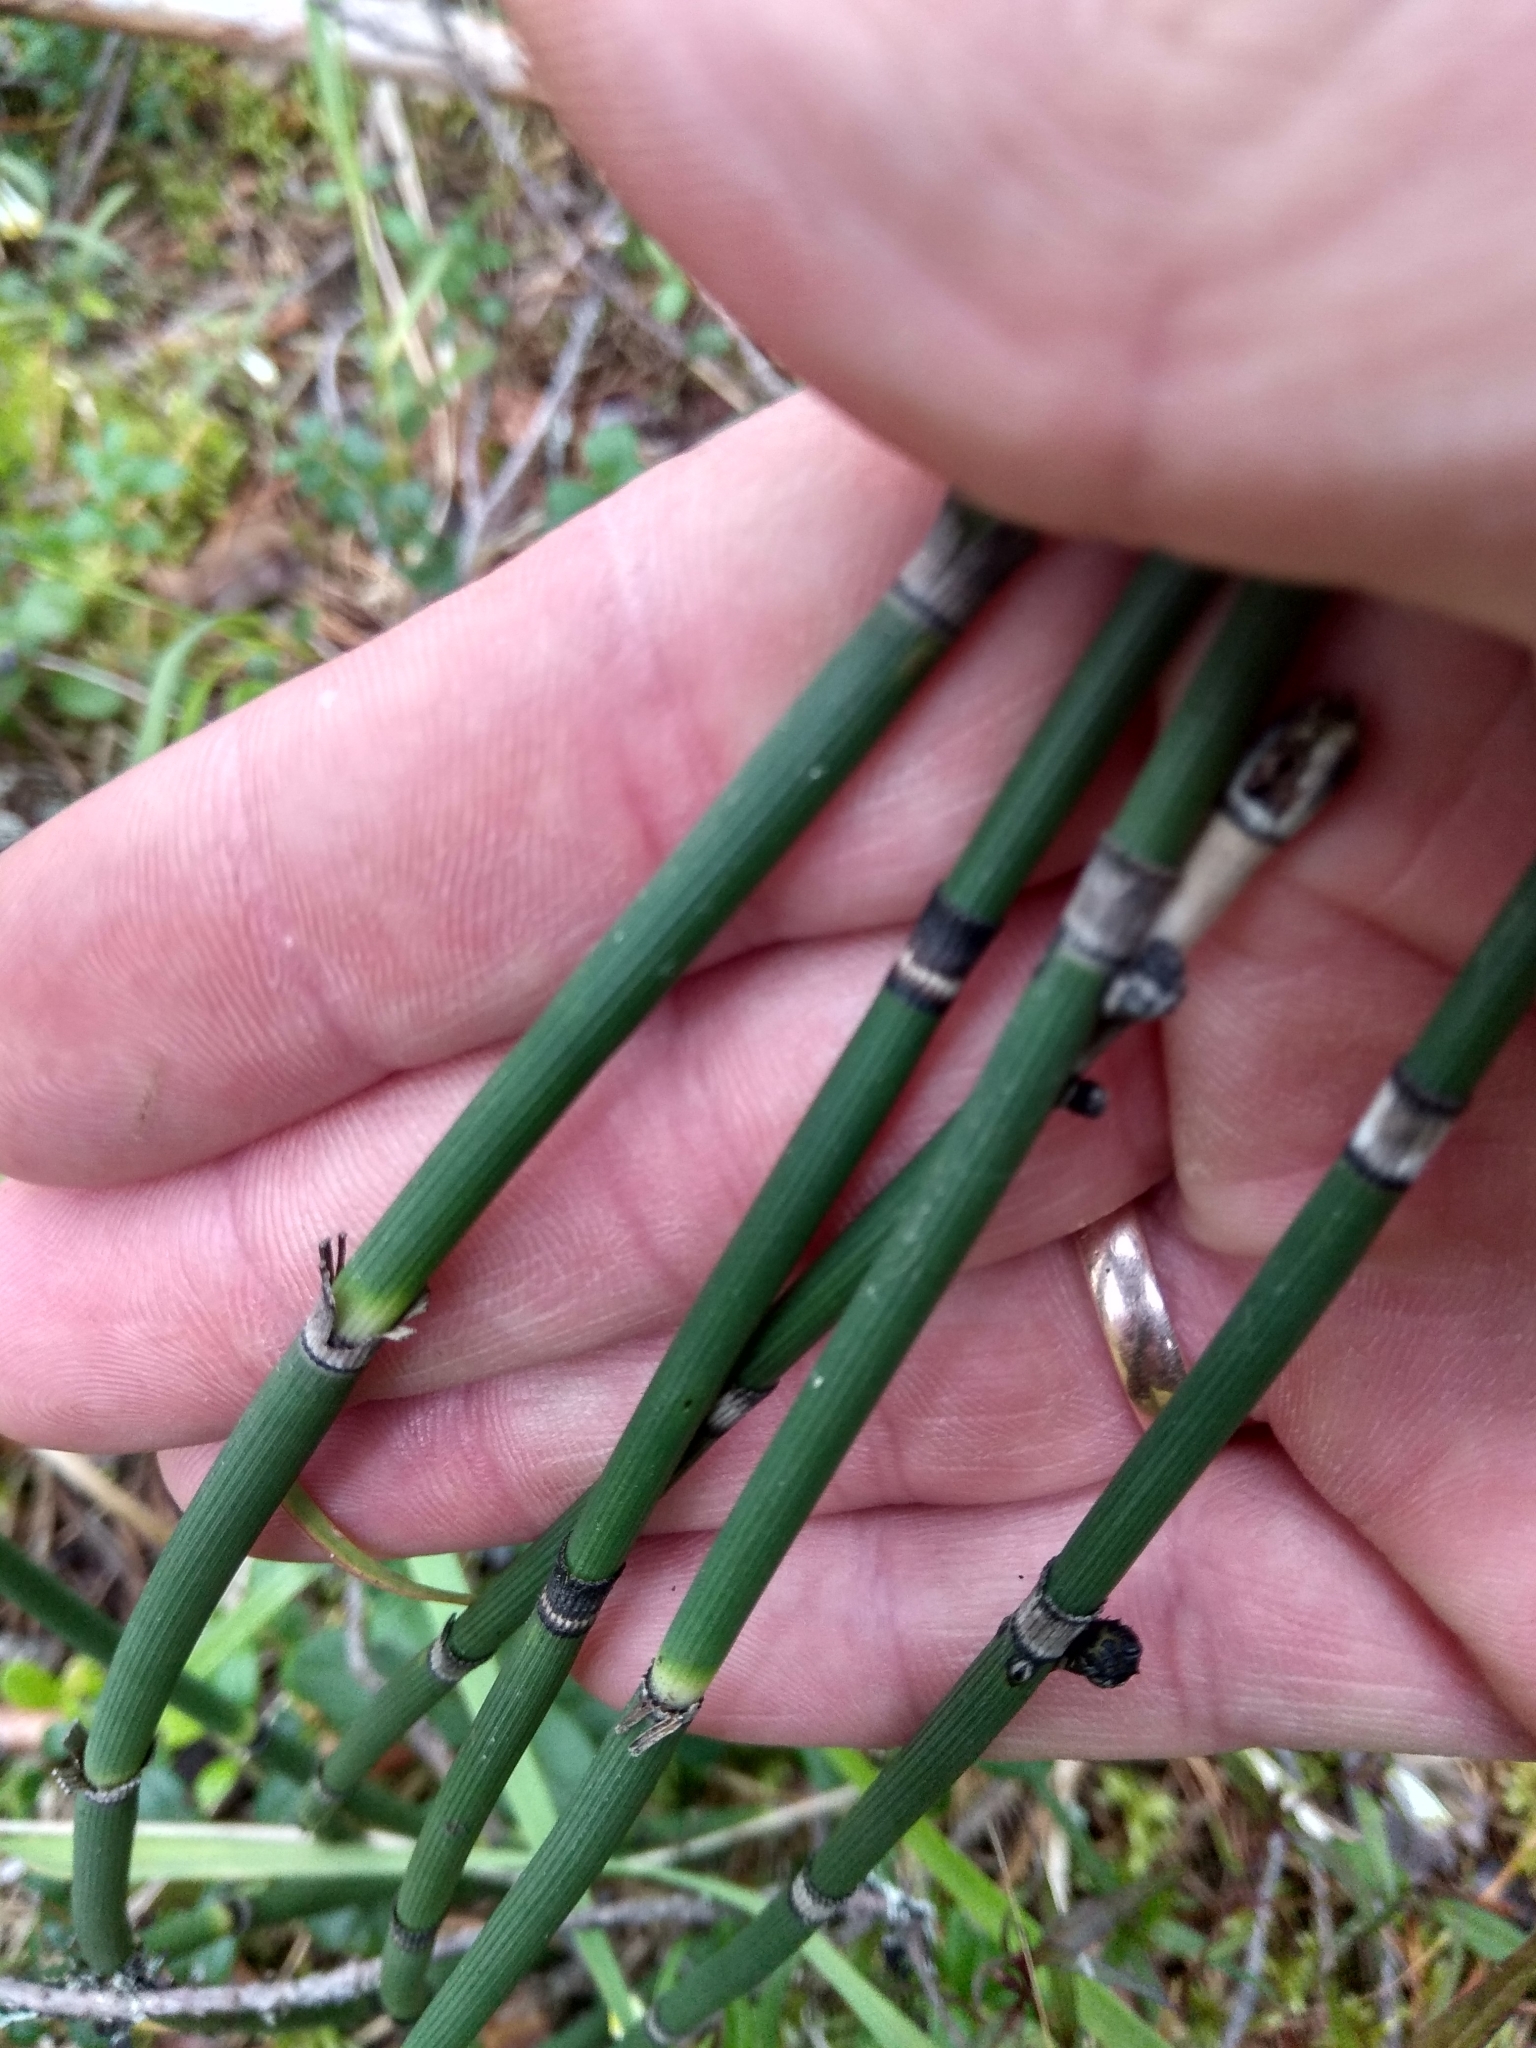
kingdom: Plantae
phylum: Tracheophyta
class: Polypodiopsida
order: Equisetales
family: Equisetaceae
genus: Equisetum
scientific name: Equisetum hyemale
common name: Rough horsetail
